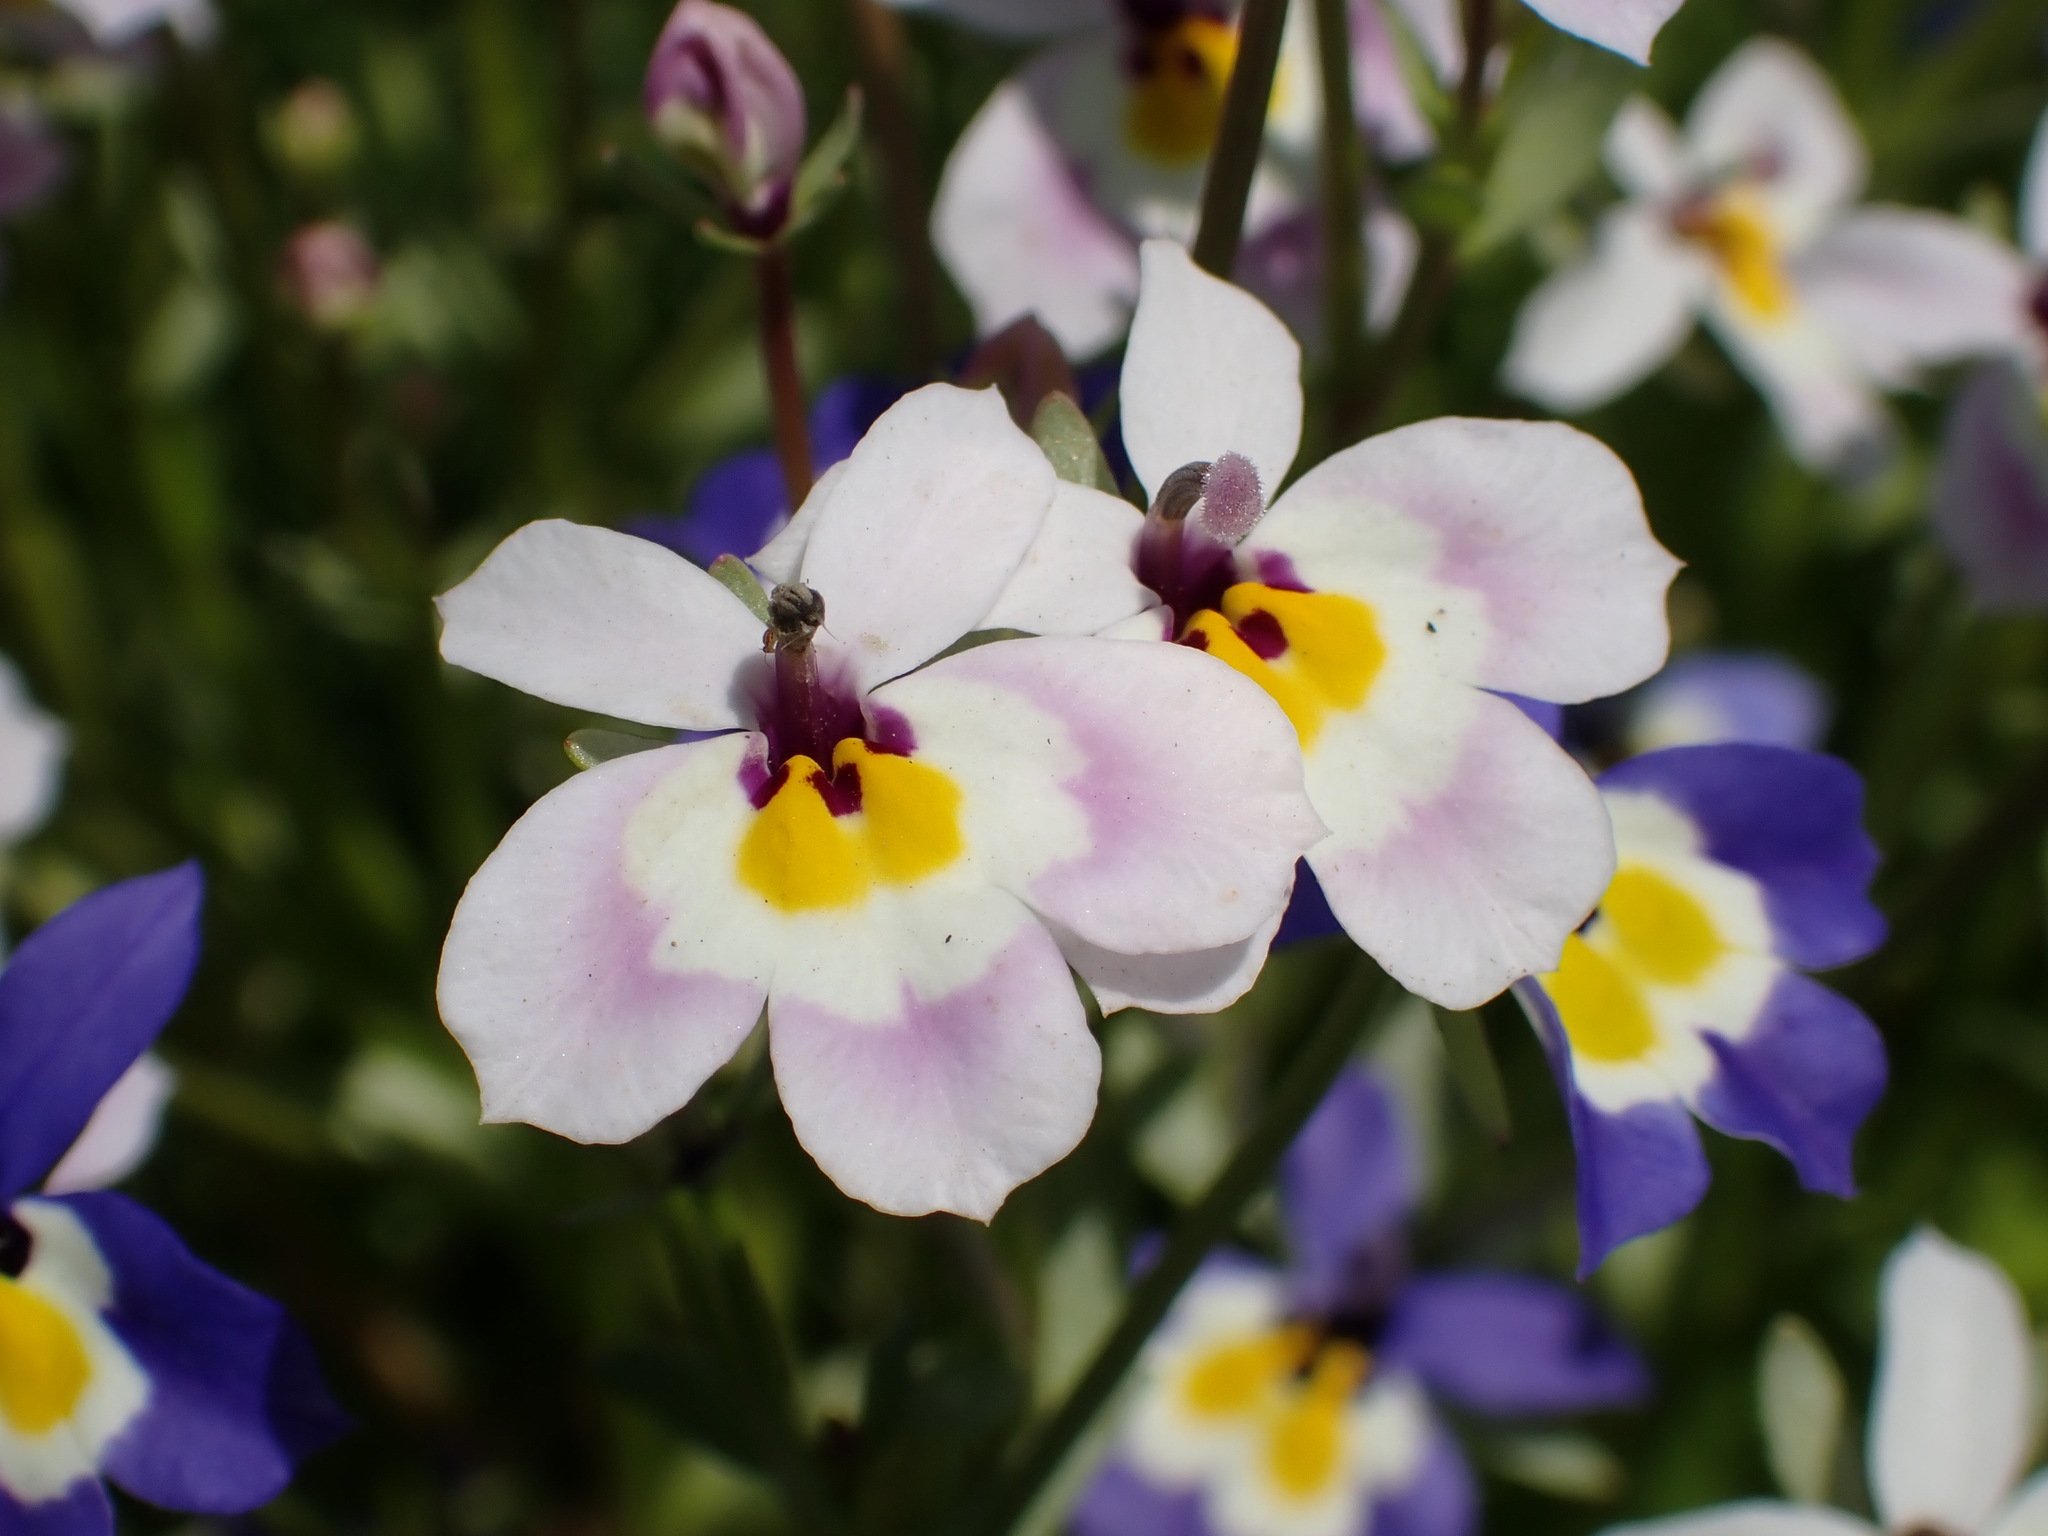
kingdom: Plantae
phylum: Tracheophyta
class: Magnoliopsida
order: Asterales
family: Campanulaceae
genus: Downingia
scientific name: Downingia pulchella
